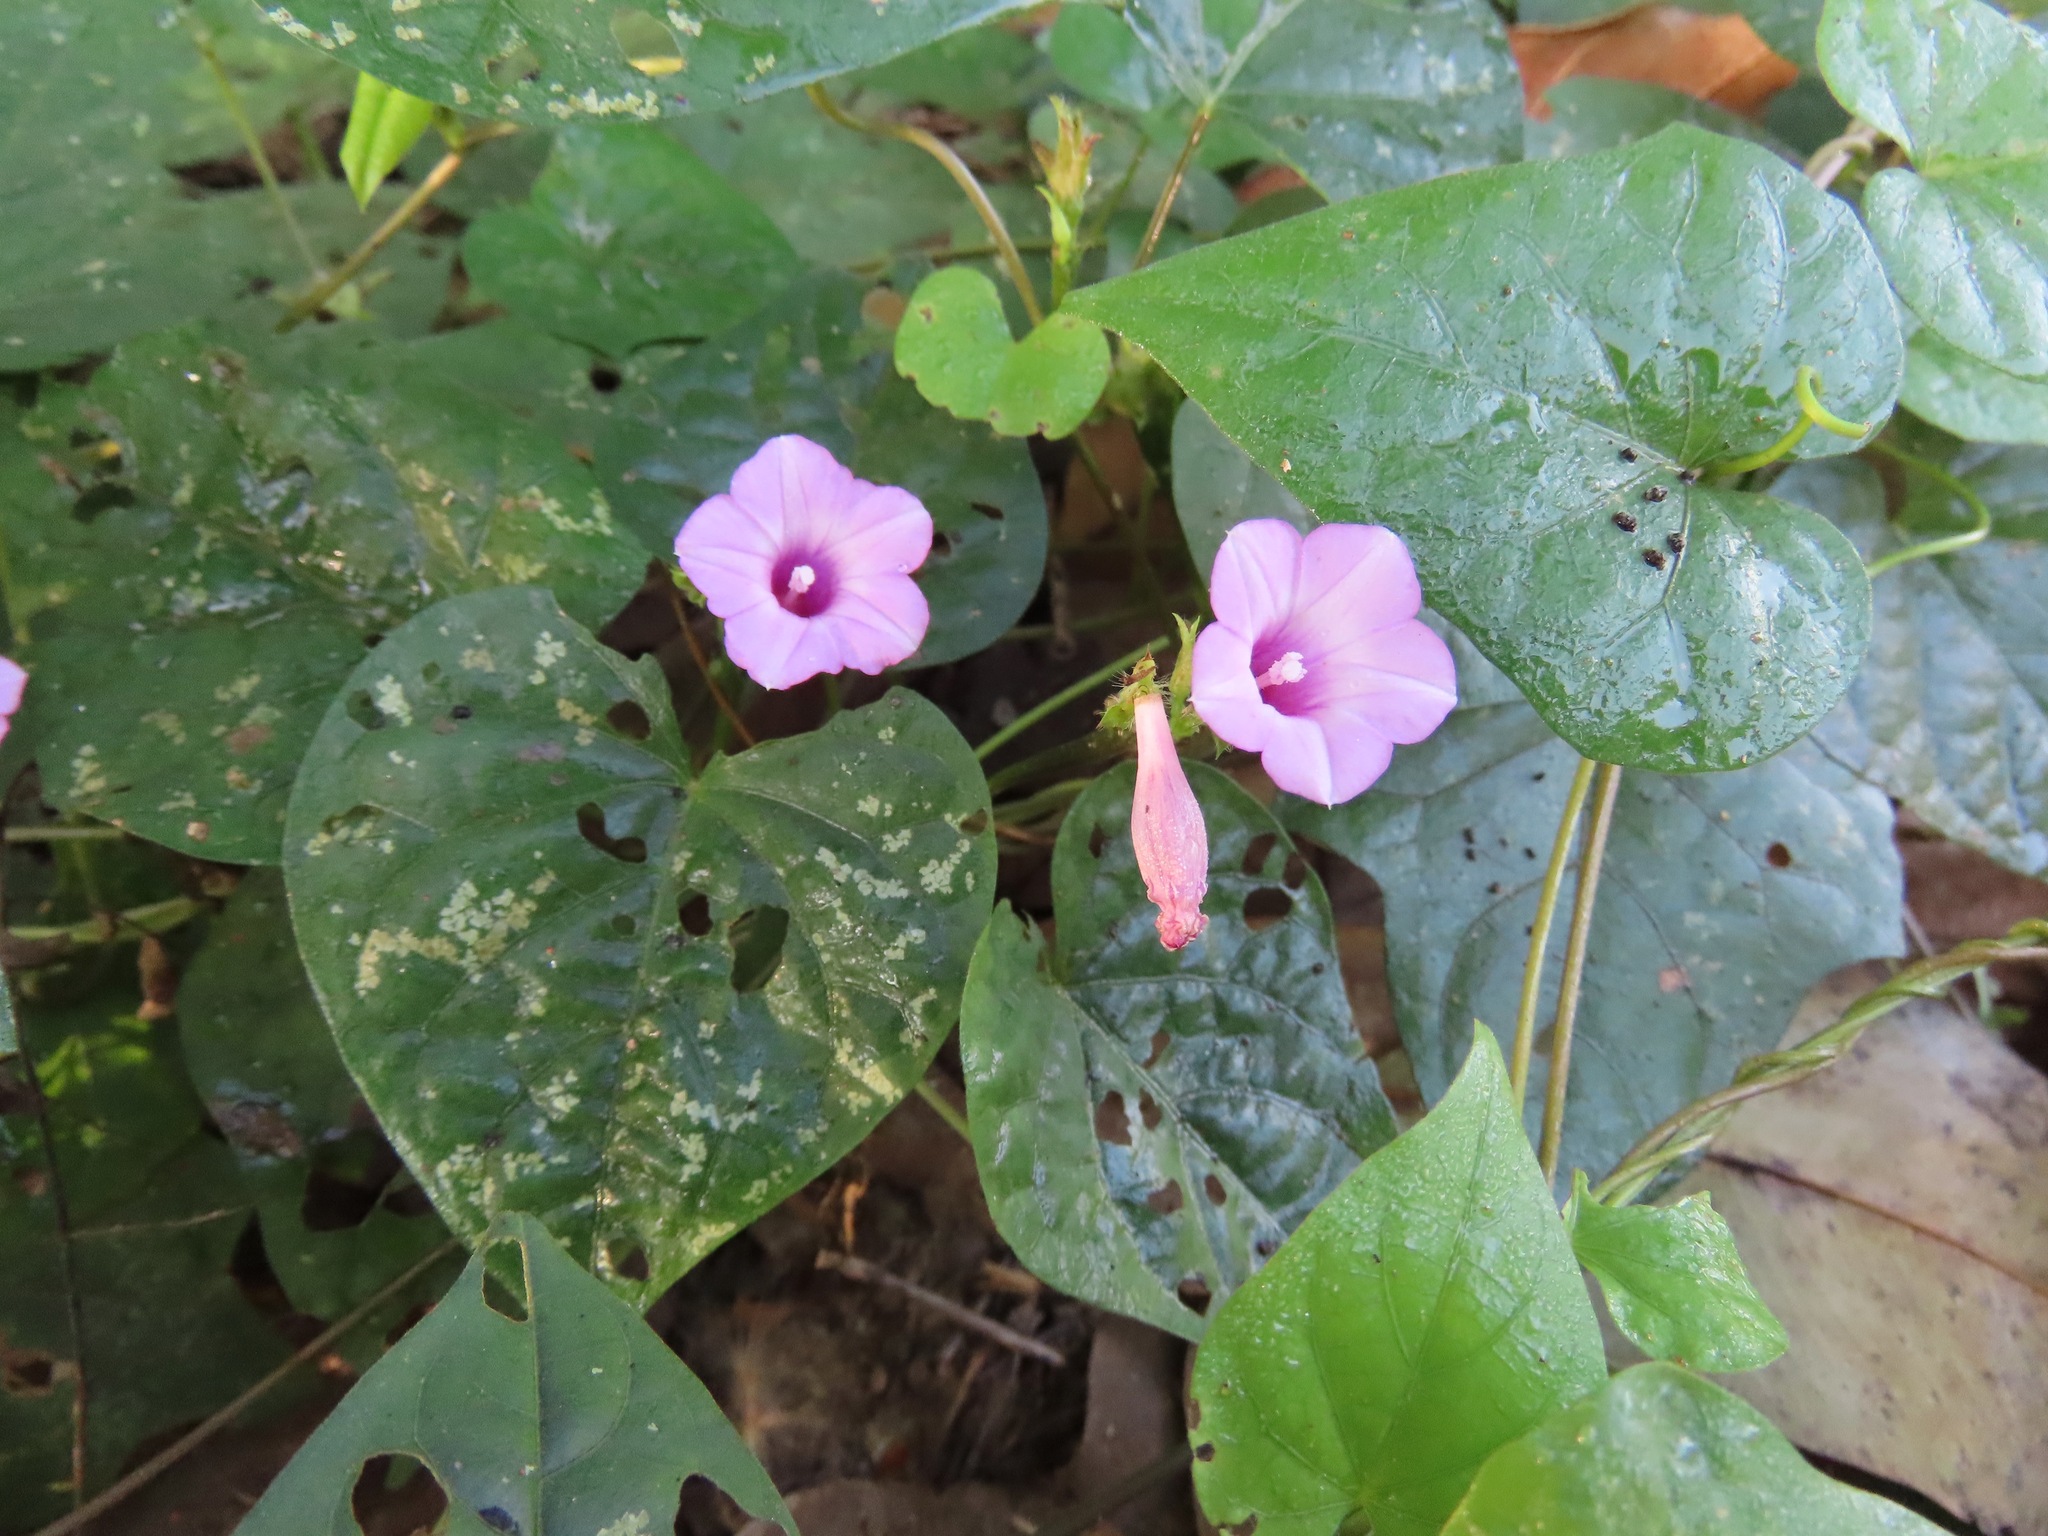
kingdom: Plantae
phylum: Tracheophyta
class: Magnoliopsida
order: Solanales
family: Convolvulaceae
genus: Ipomoea
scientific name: Ipomoea triloba
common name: Little-bell
